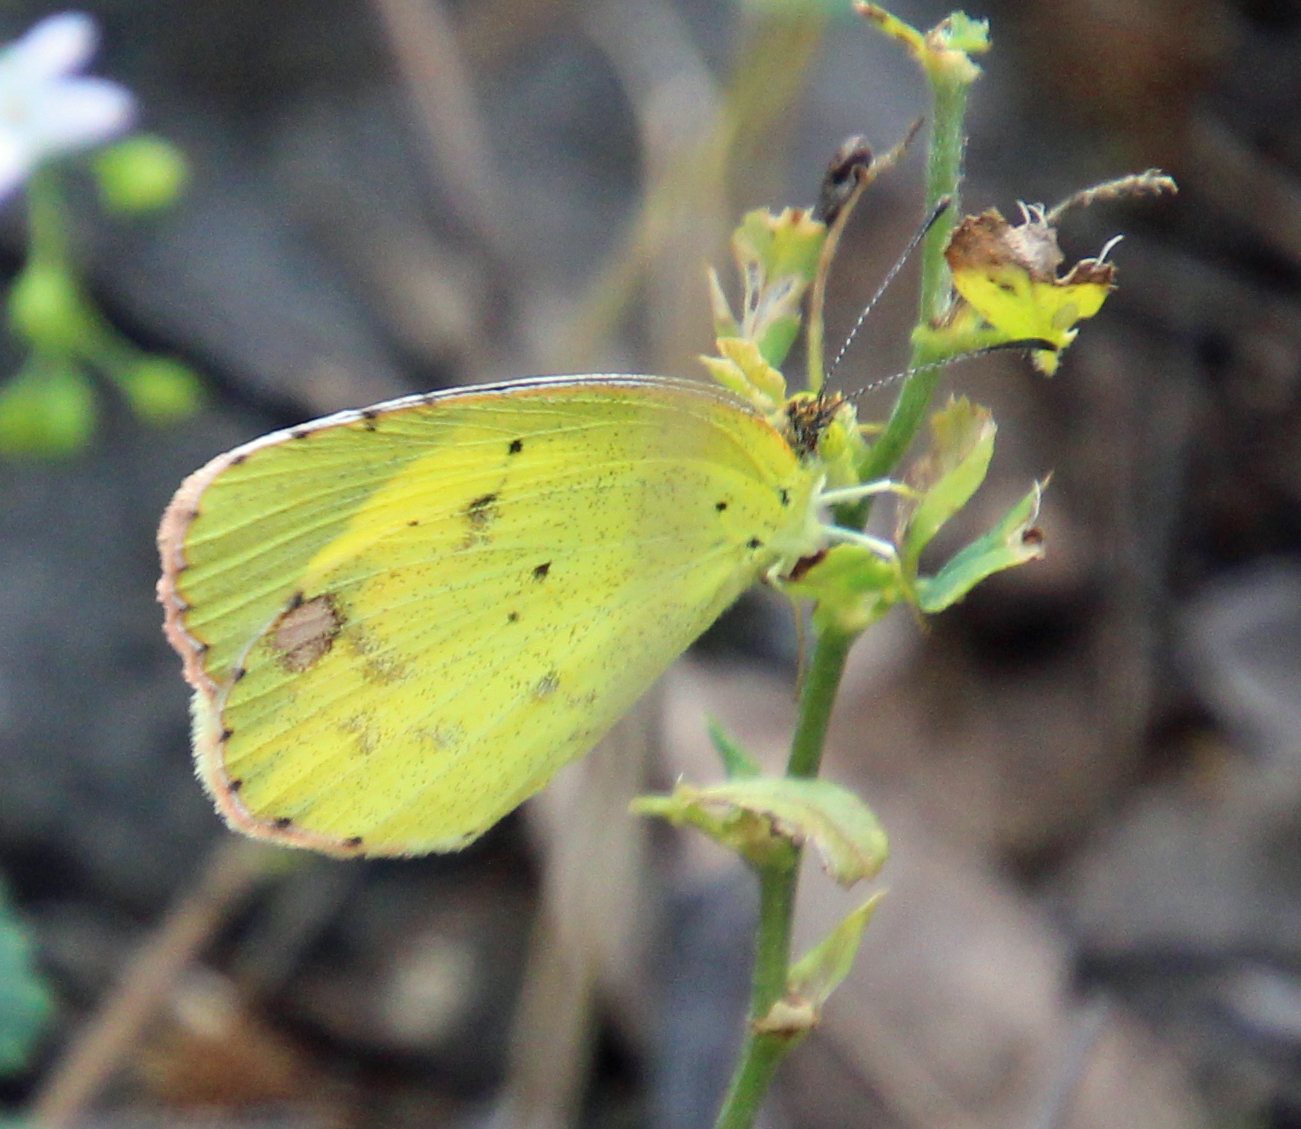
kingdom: Animalia
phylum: Arthropoda
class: Insecta
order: Lepidoptera
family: Pieridae
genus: Pyrisitia
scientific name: Pyrisitia lisa
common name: Little yellow
